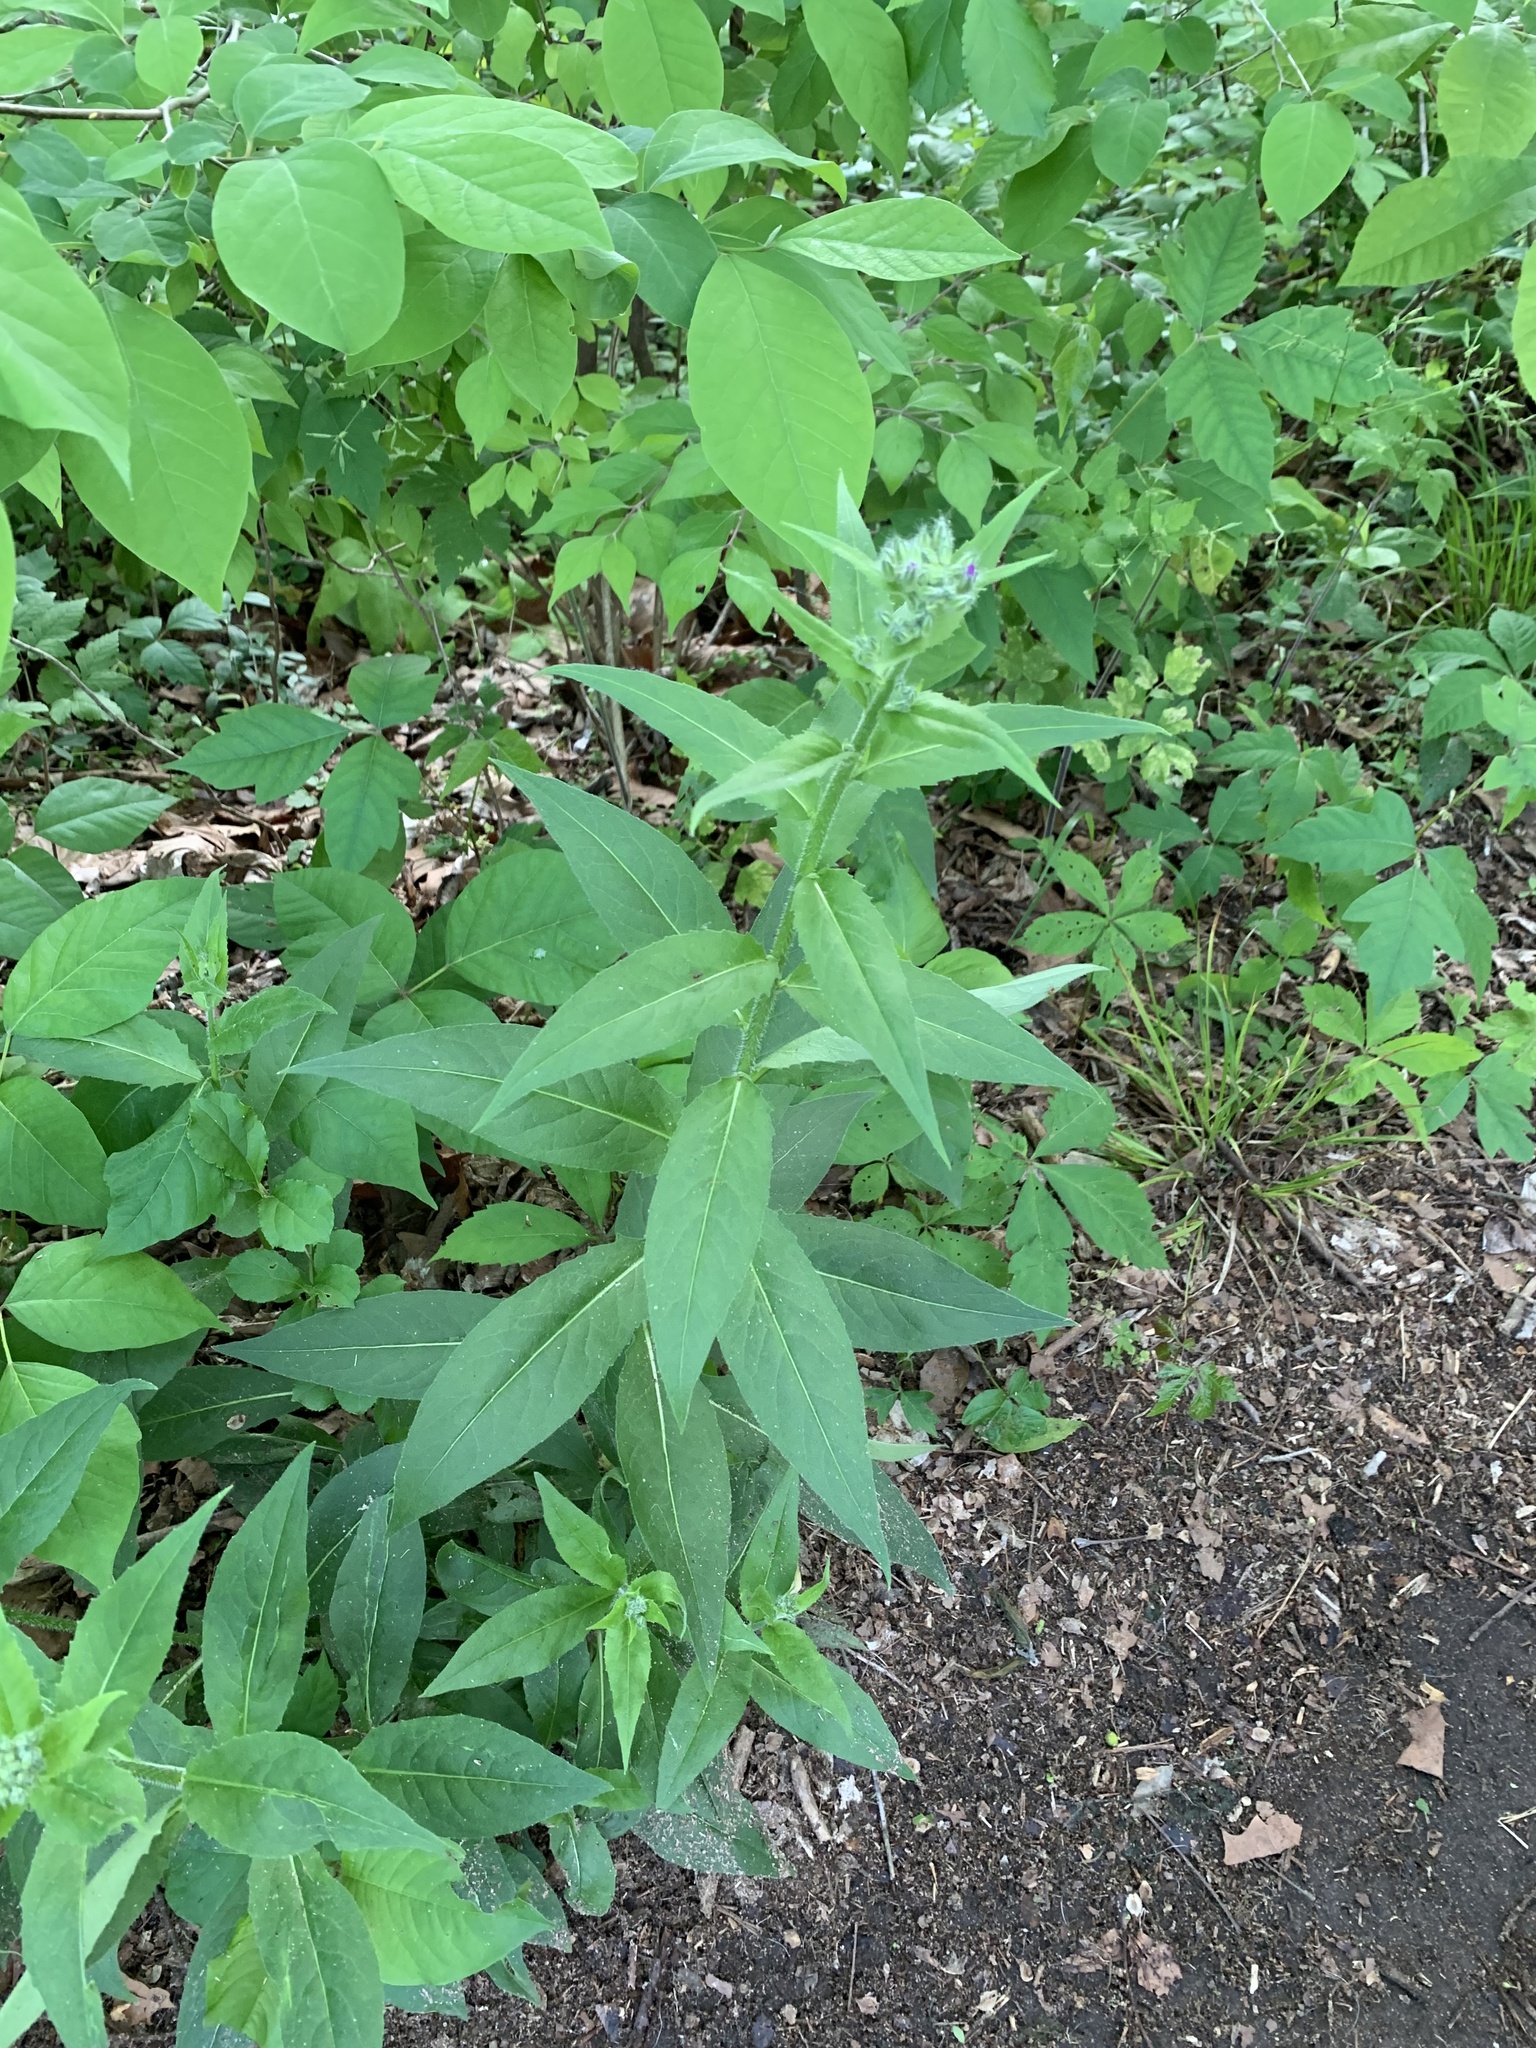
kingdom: Plantae
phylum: Tracheophyta
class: Magnoliopsida
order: Brassicales
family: Brassicaceae
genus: Hesperis
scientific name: Hesperis matronalis
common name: Dame's-violet
